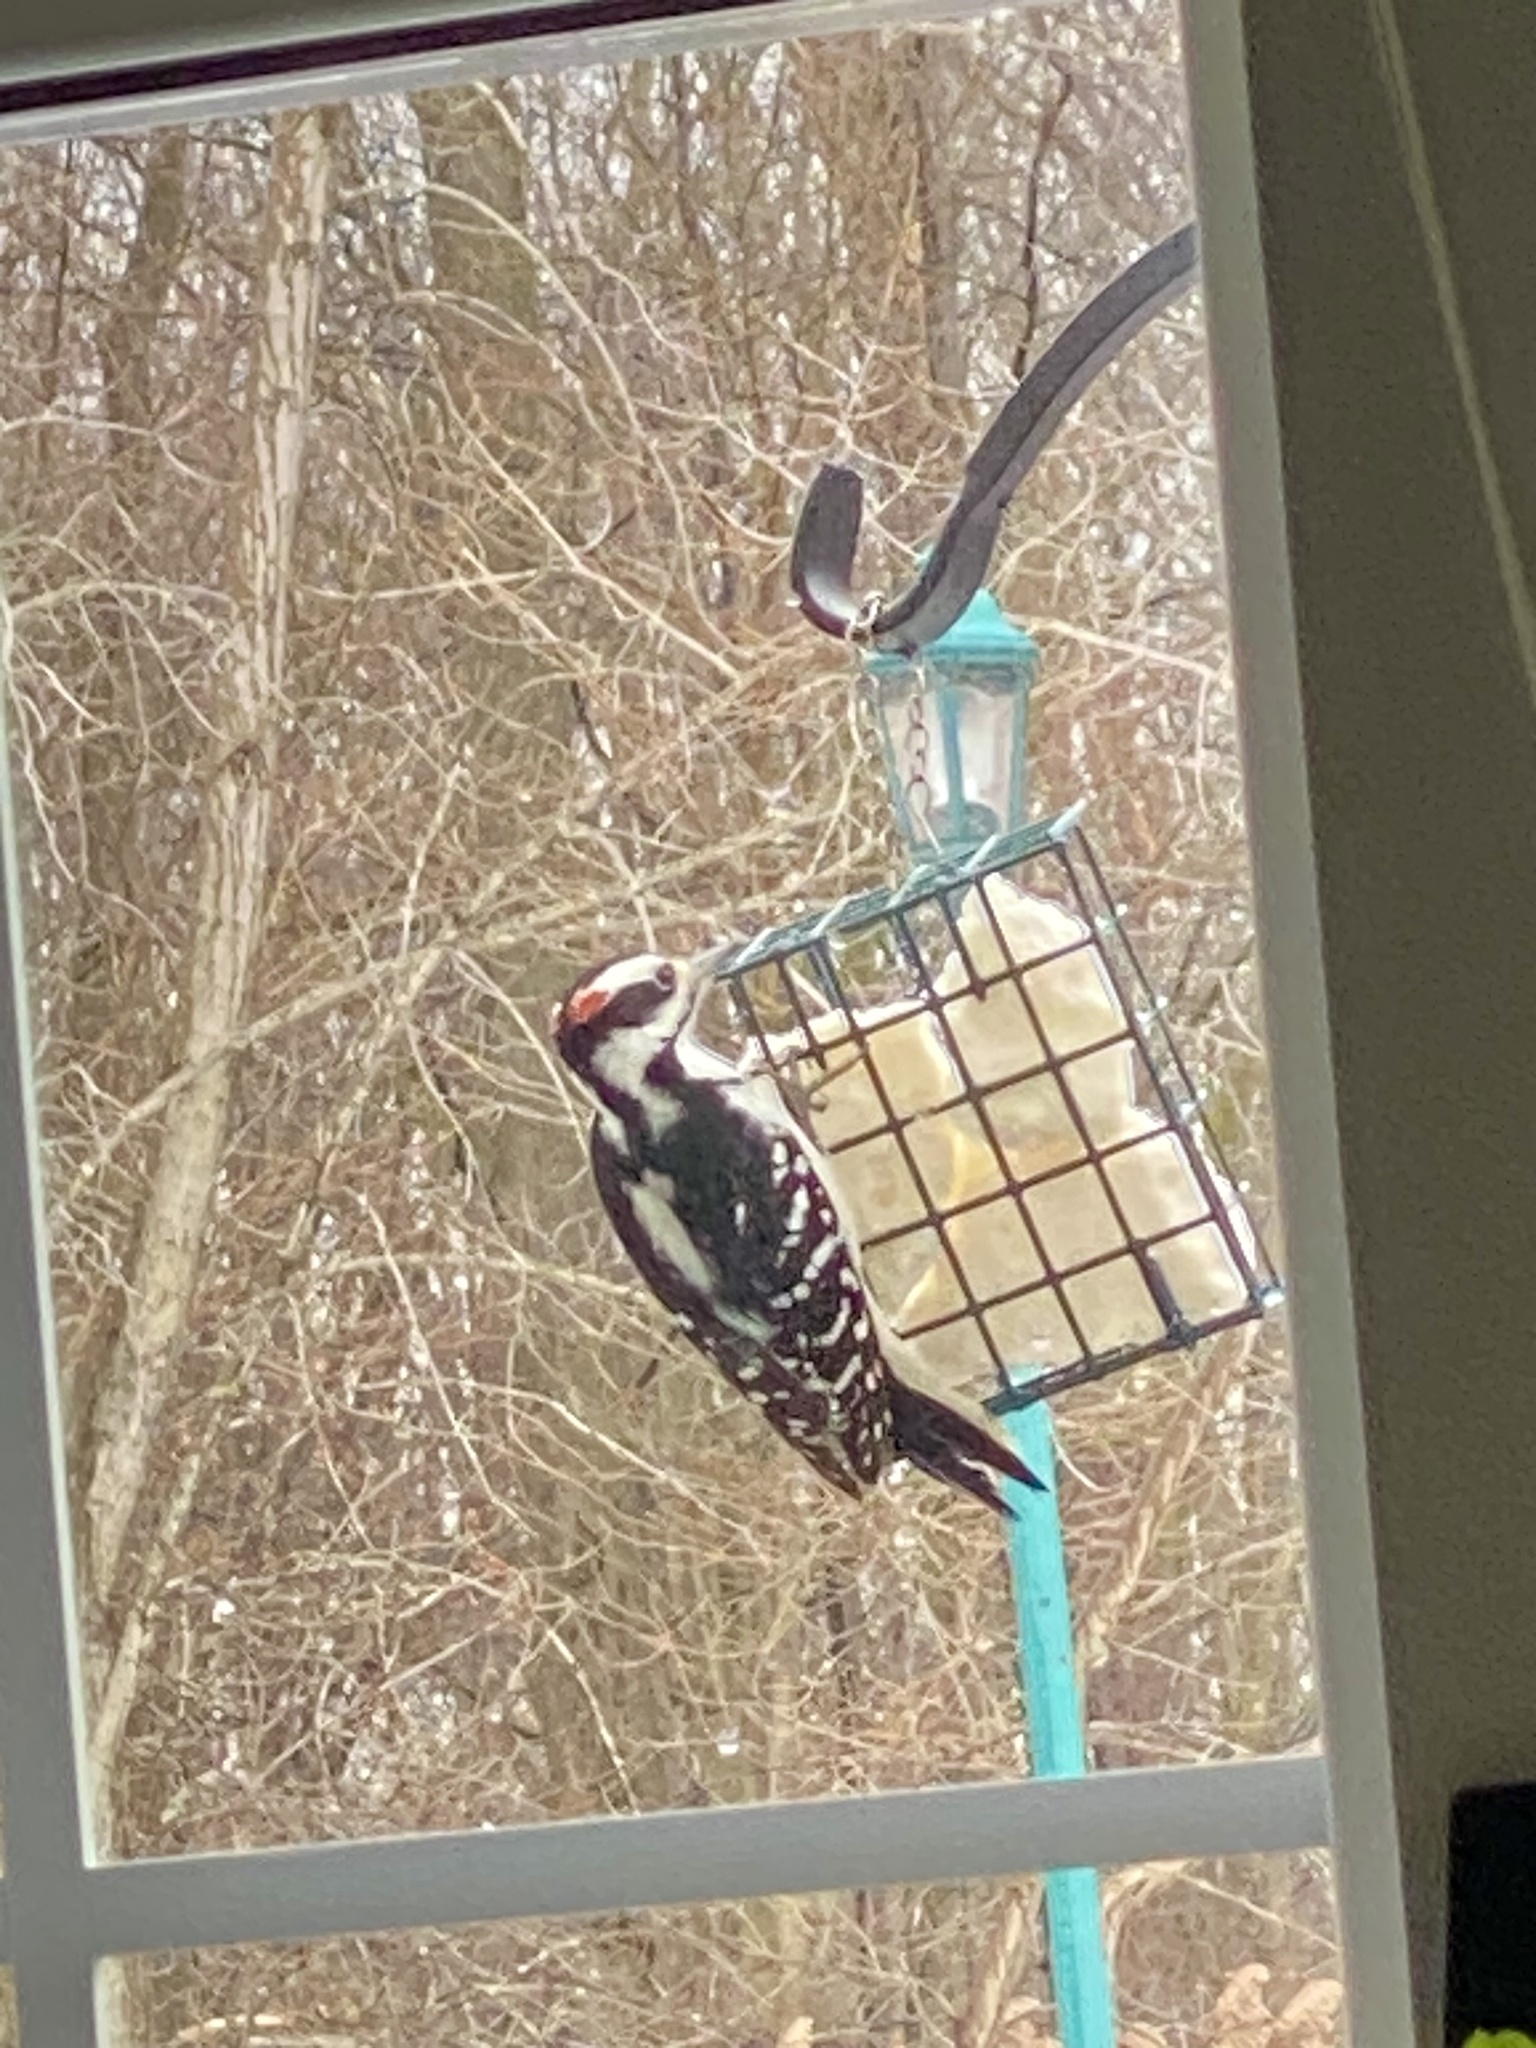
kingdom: Animalia
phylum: Chordata
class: Aves
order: Piciformes
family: Picidae
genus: Leuconotopicus
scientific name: Leuconotopicus villosus
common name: Hairy woodpecker
